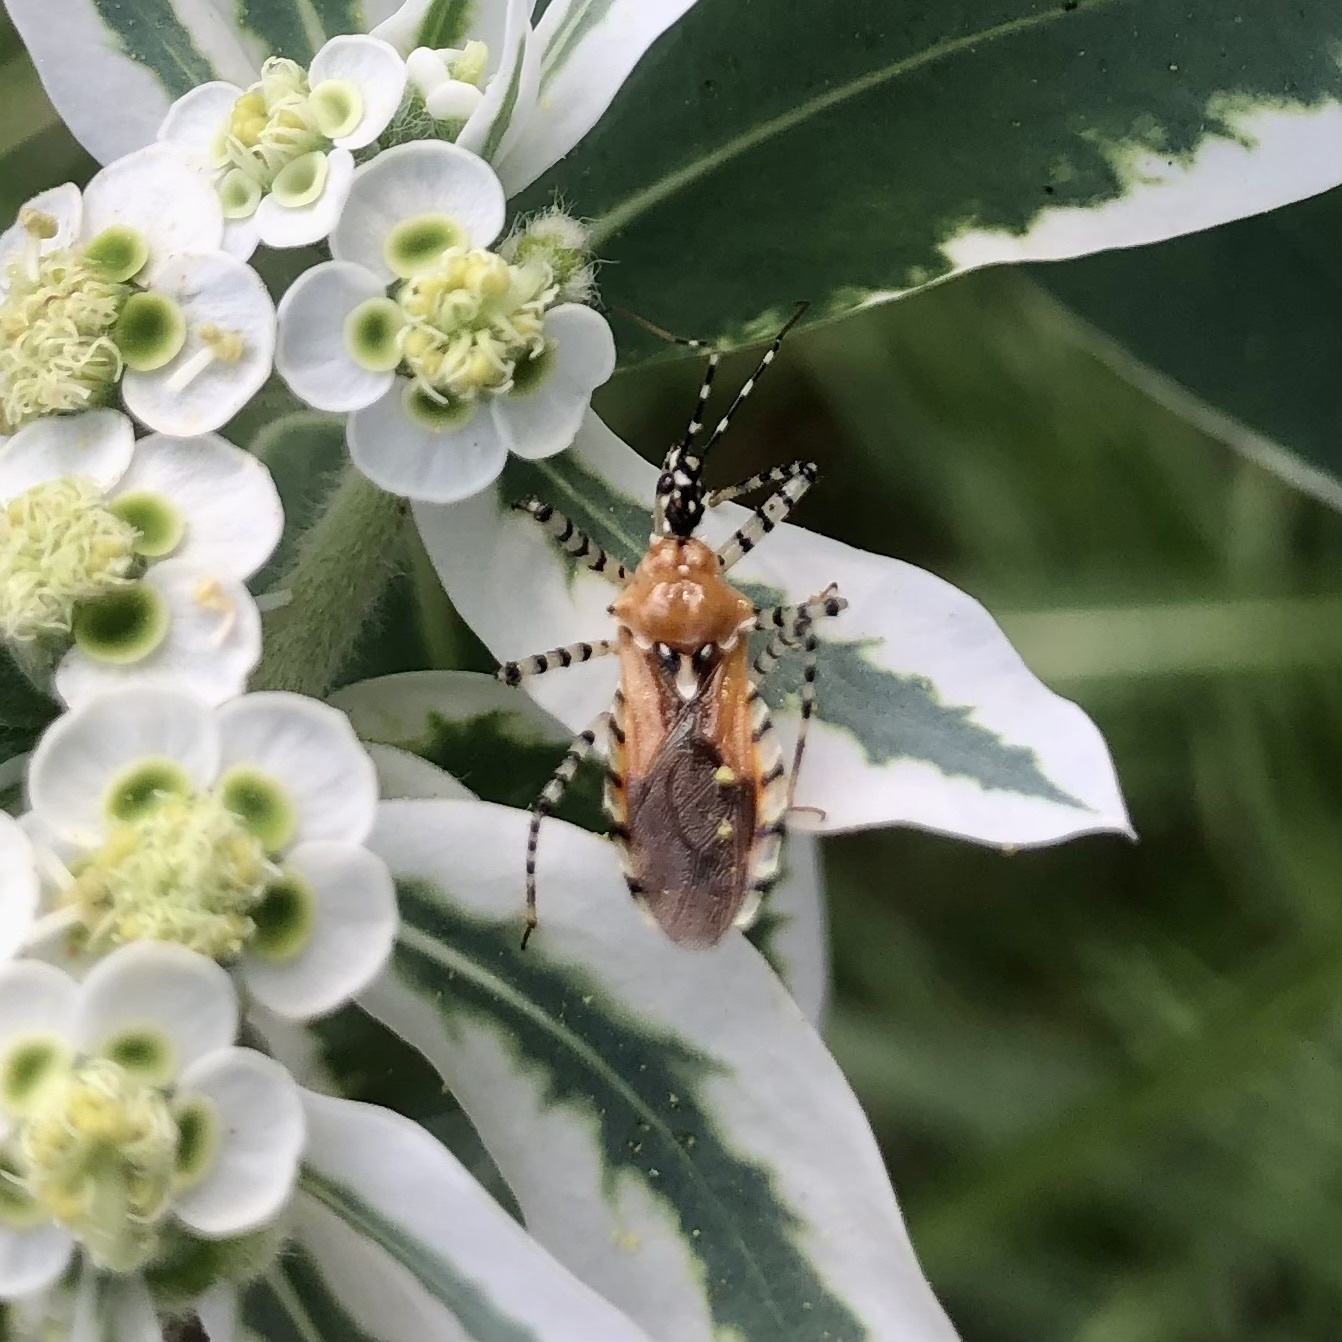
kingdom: Animalia
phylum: Arthropoda
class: Insecta
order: Hemiptera
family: Reduviidae
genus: Pselliopus
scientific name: Pselliopus cinctus
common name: Ringed assassin bug
